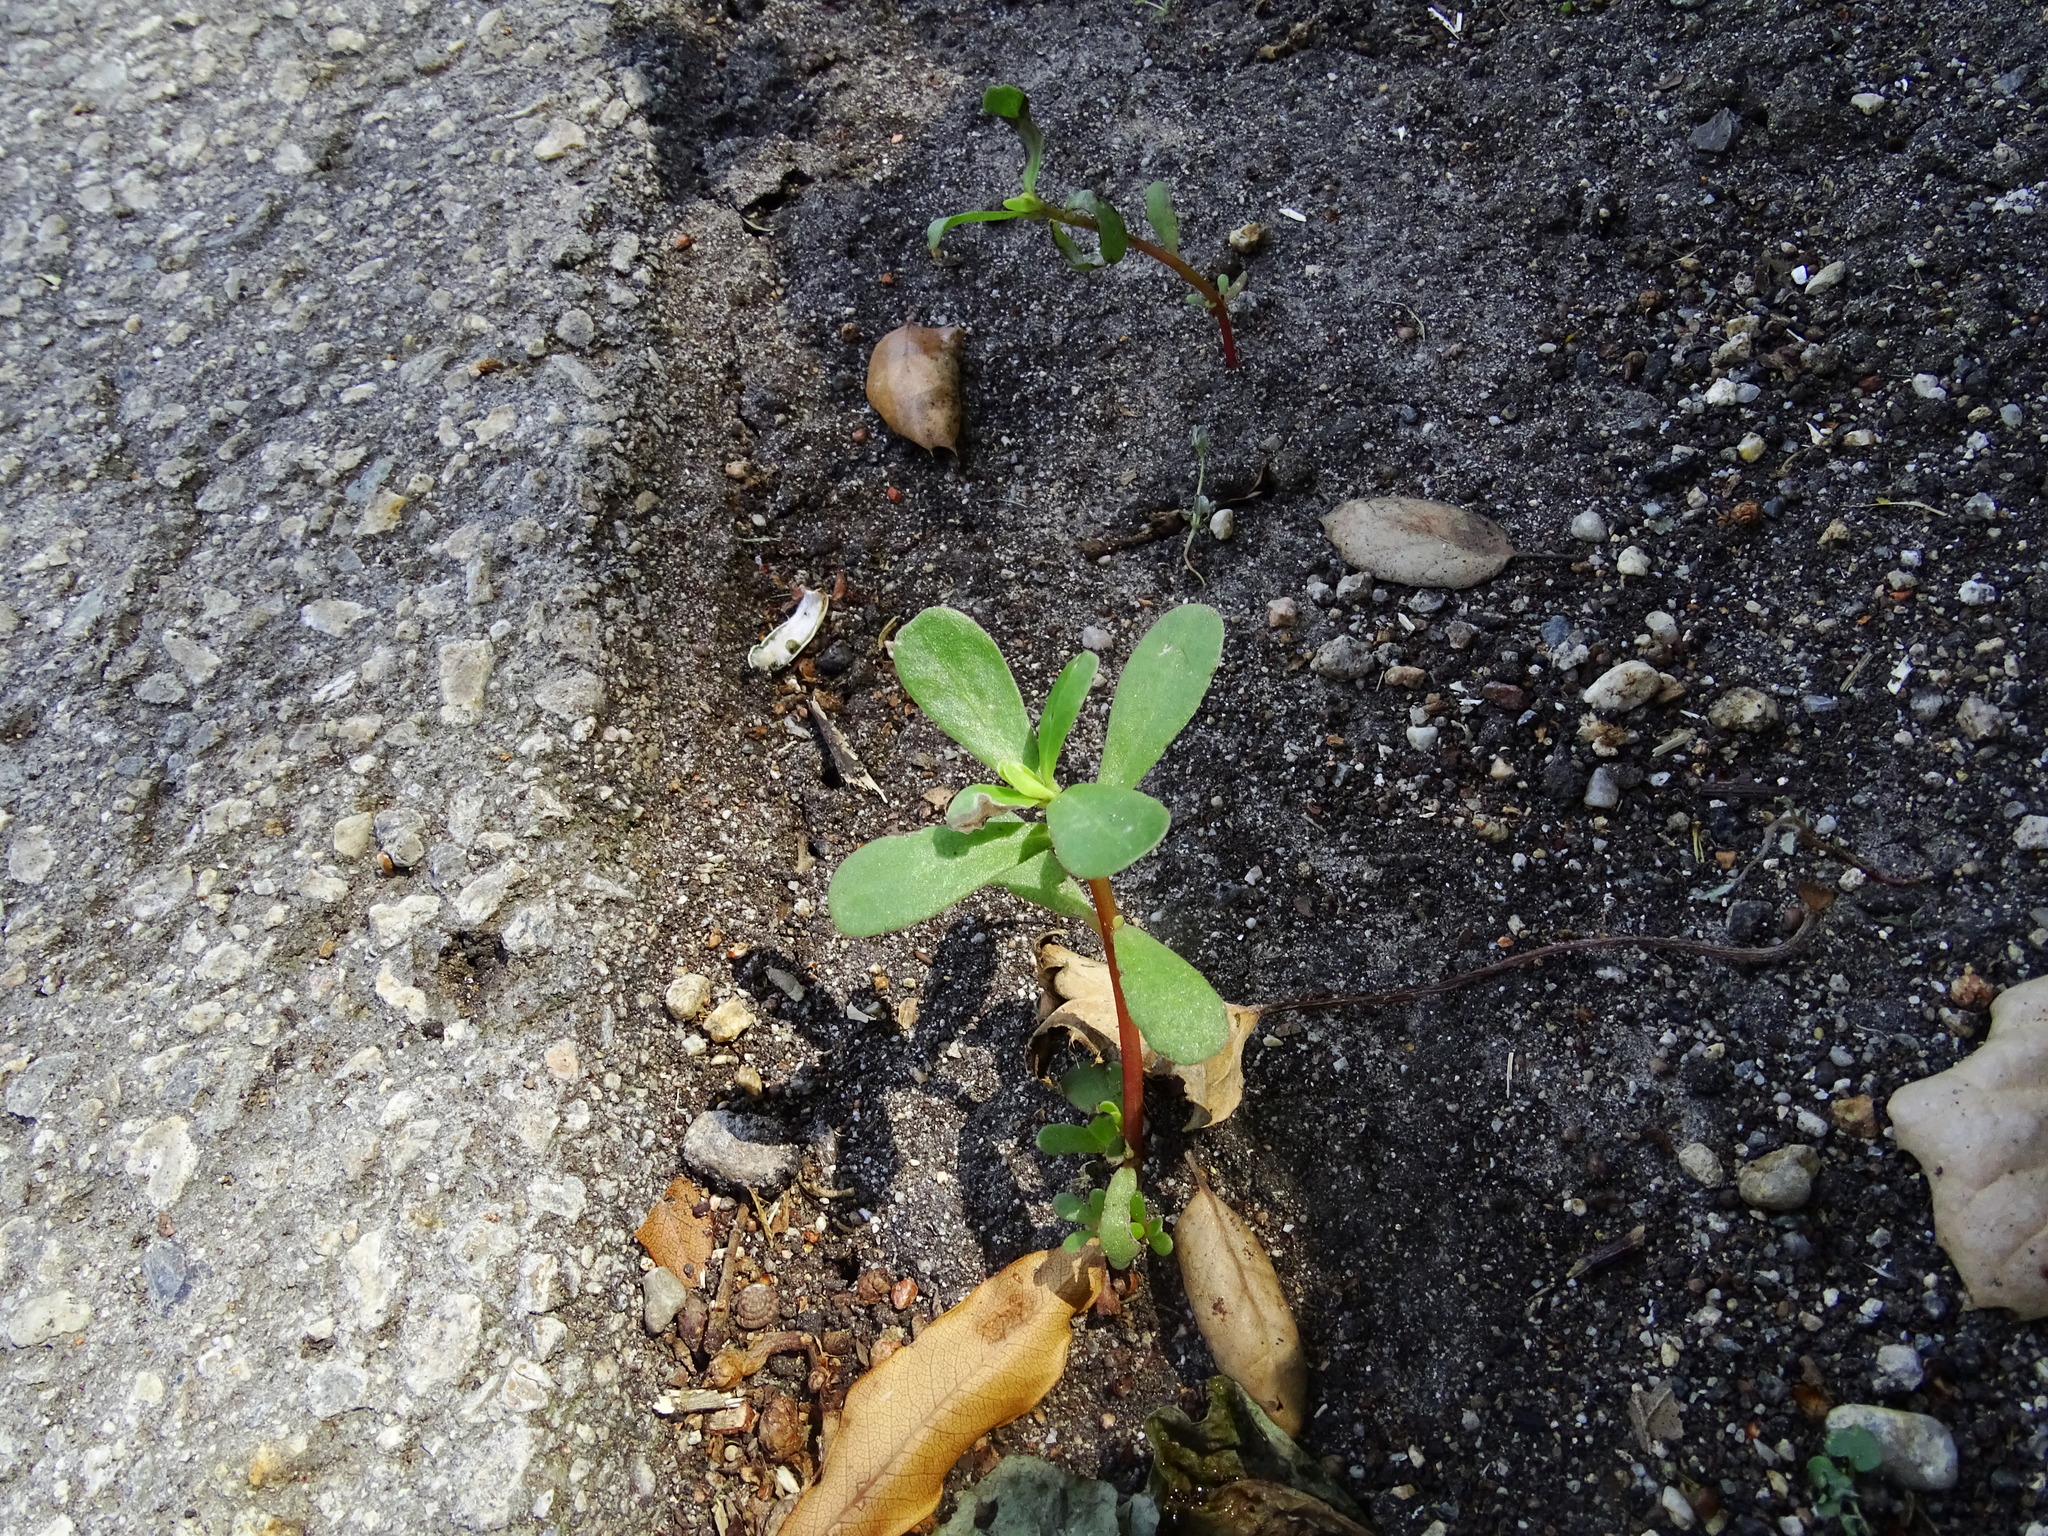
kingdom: Plantae
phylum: Tracheophyta
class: Magnoliopsida
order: Caryophyllales
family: Portulacaceae
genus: Portulaca
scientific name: Portulaca oleracea
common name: Common purslane
